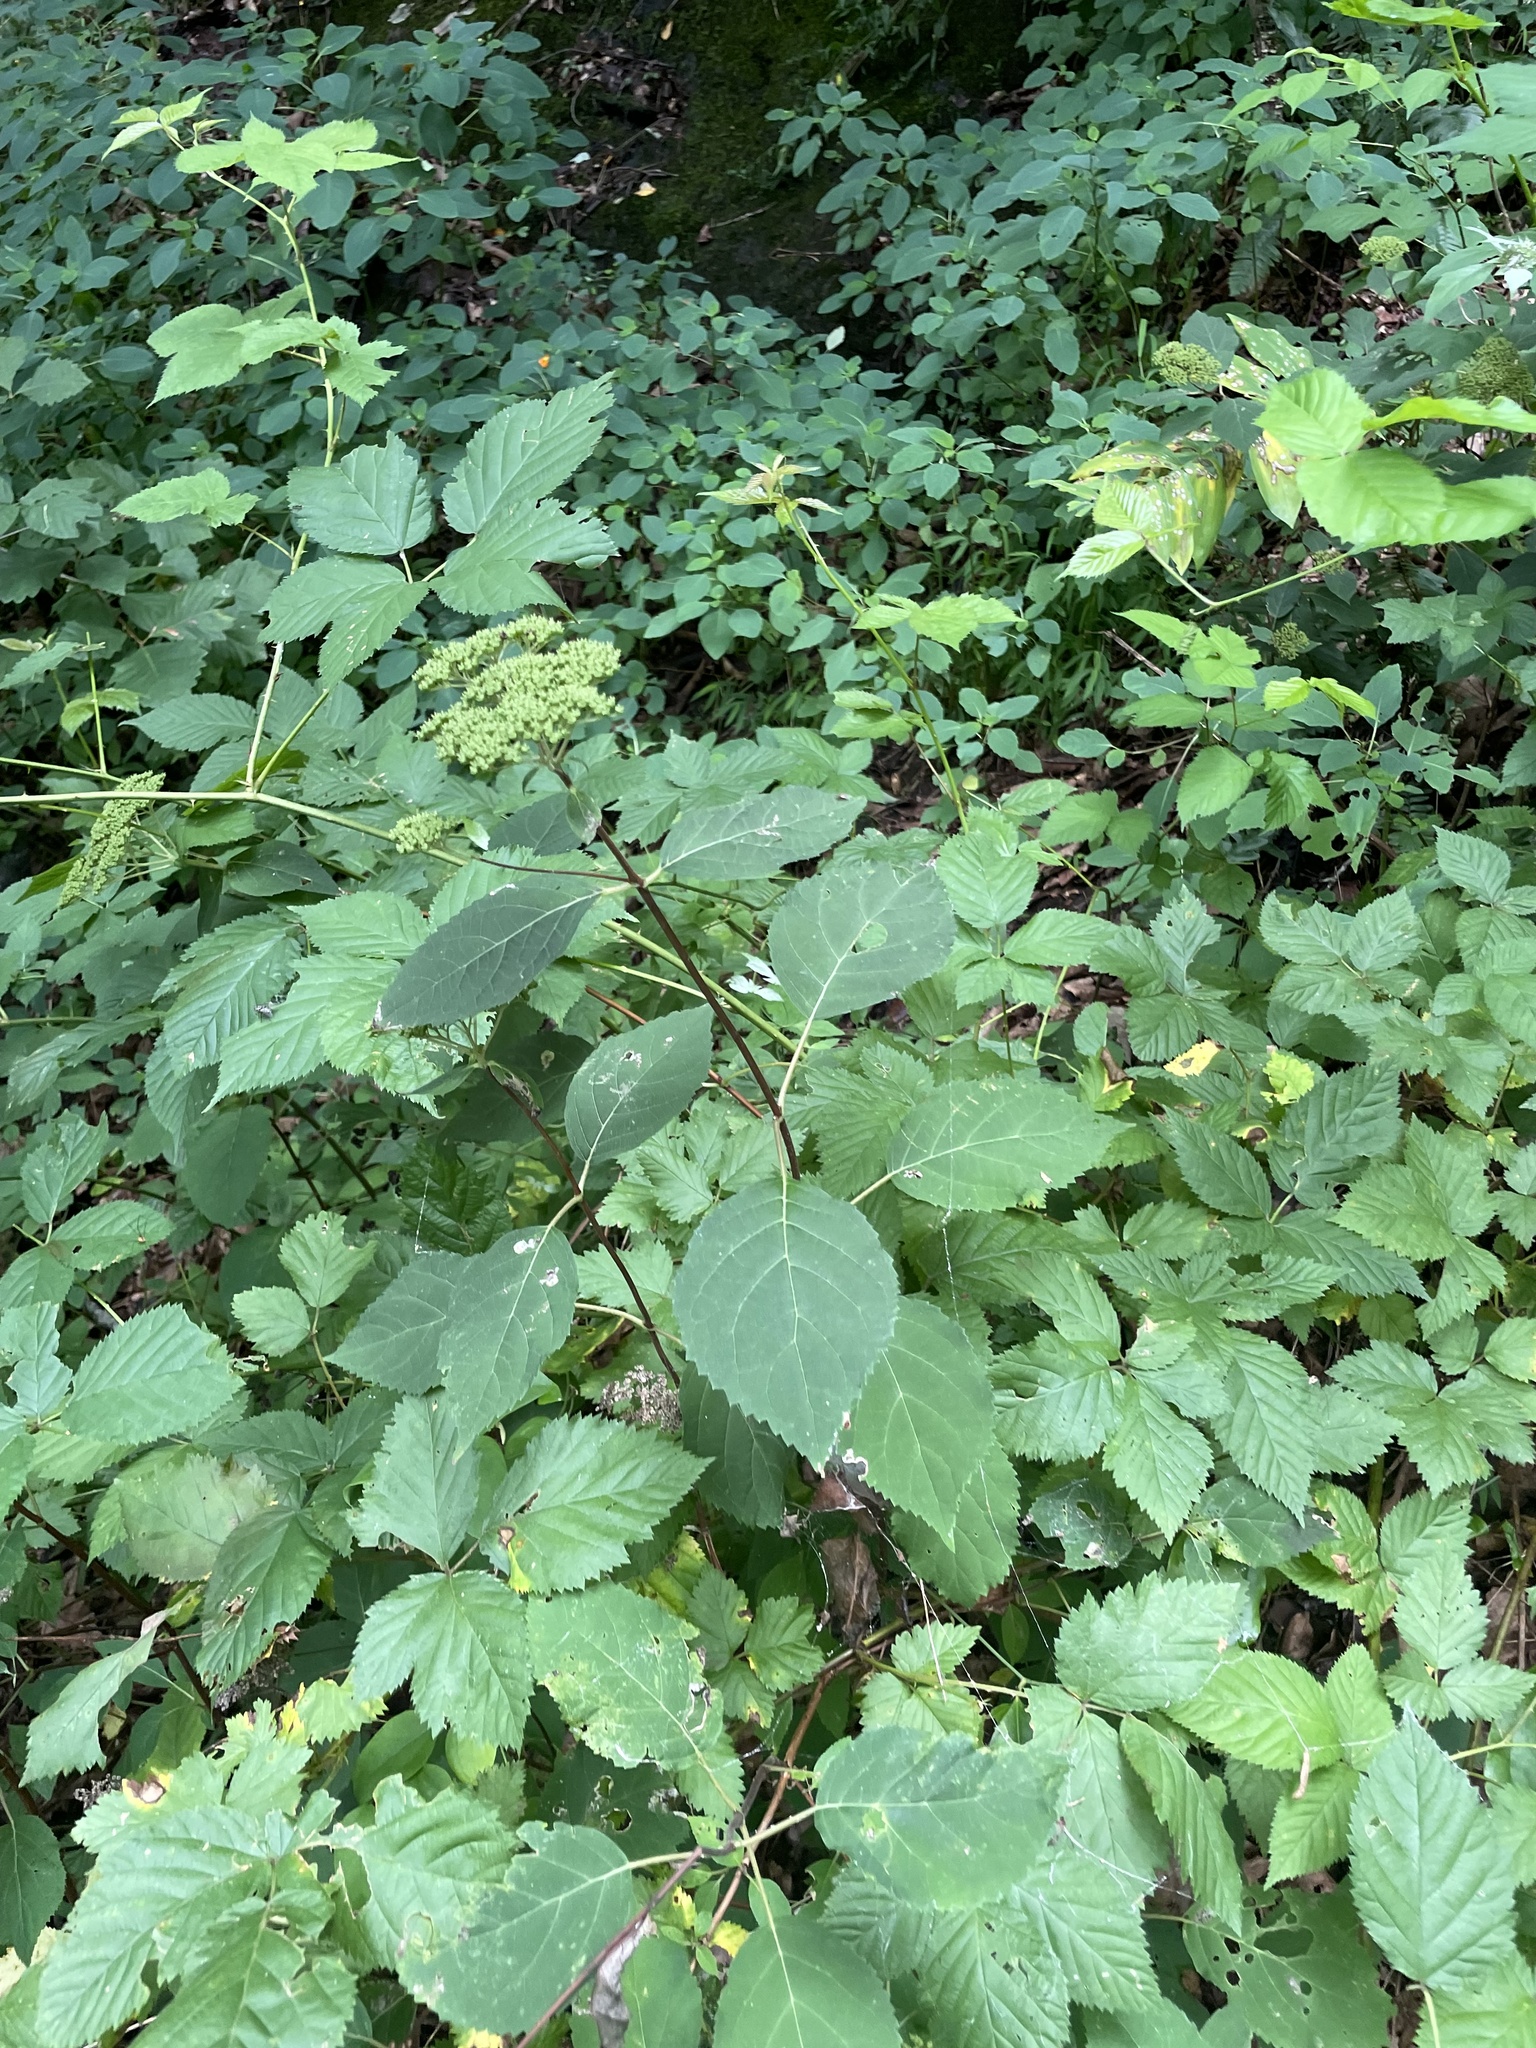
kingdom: Plantae
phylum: Tracheophyta
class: Magnoliopsida
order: Cornales
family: Hydrangeaceae
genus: Hydrangea
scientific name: Hydrangea arborescens
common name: Sevenbark
